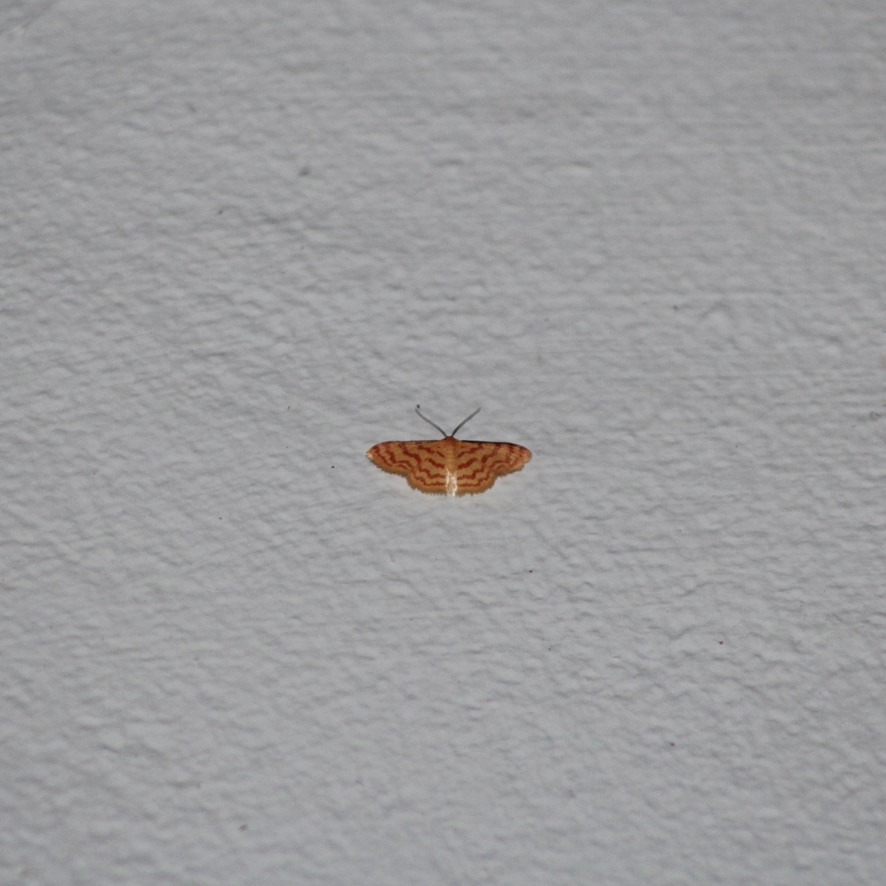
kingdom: Animalia
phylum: Arthropoda
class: Insecta
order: Lepidoptera
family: Geometridae
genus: Tricentrogyna
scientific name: Tricentrogyna deportata
